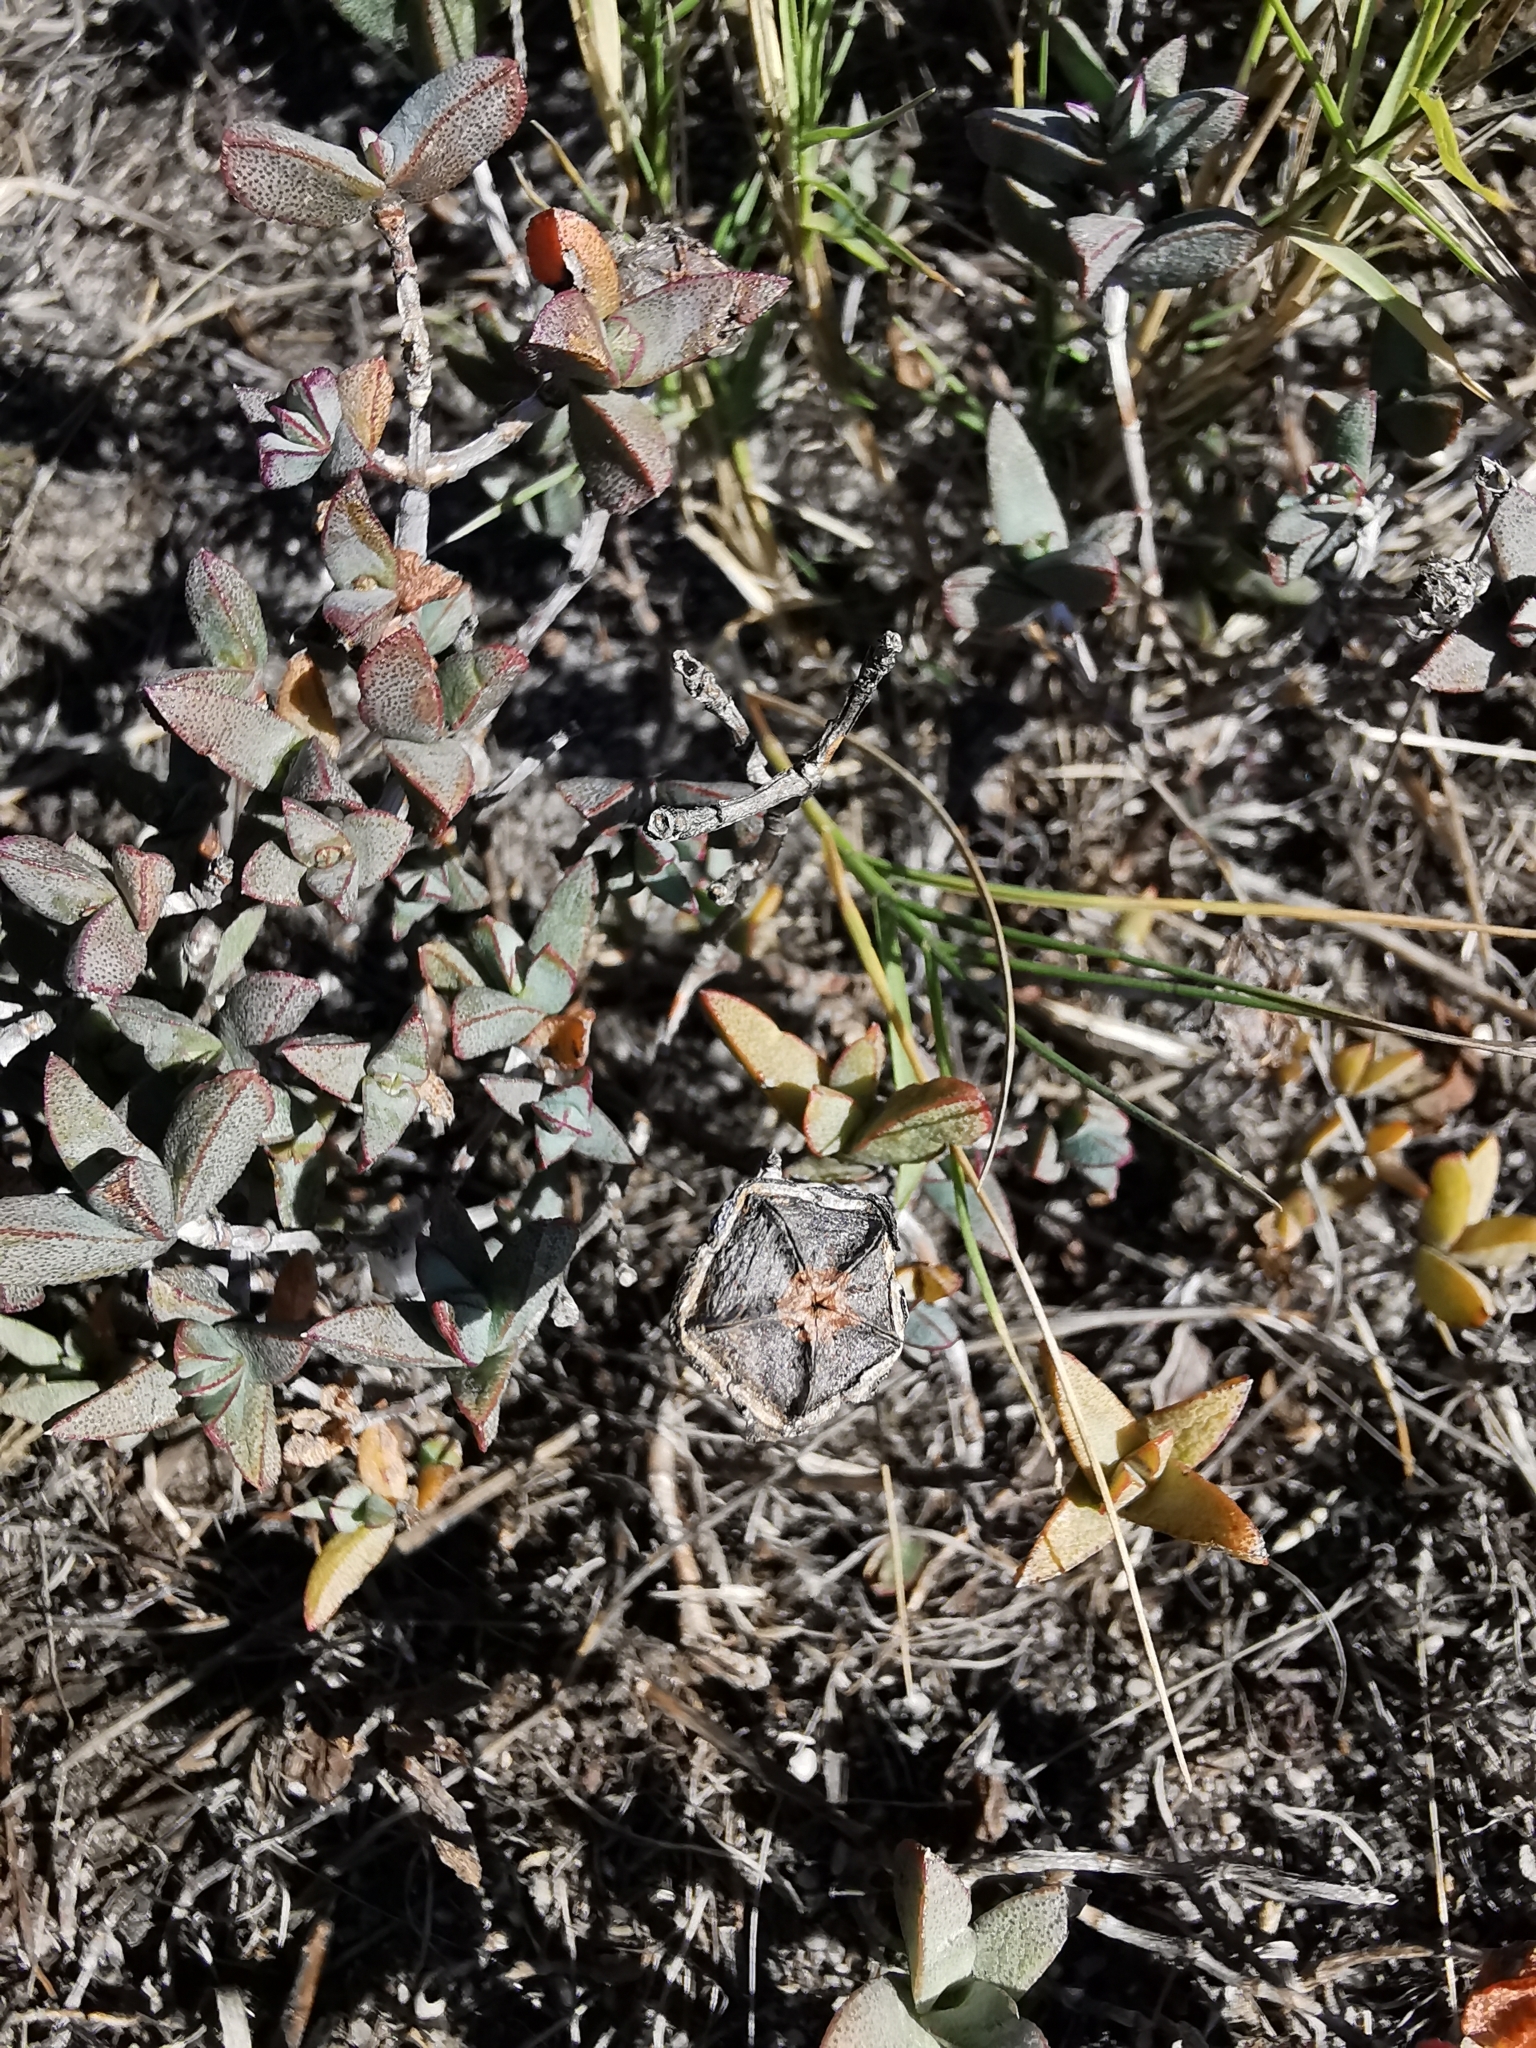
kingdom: Plantae
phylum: Tracheophyta
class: Magnoliopsida
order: Caryophyllales
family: Aizoaceae
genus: Lampranthus
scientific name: Lampranthus glaucus
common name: Noonflower
